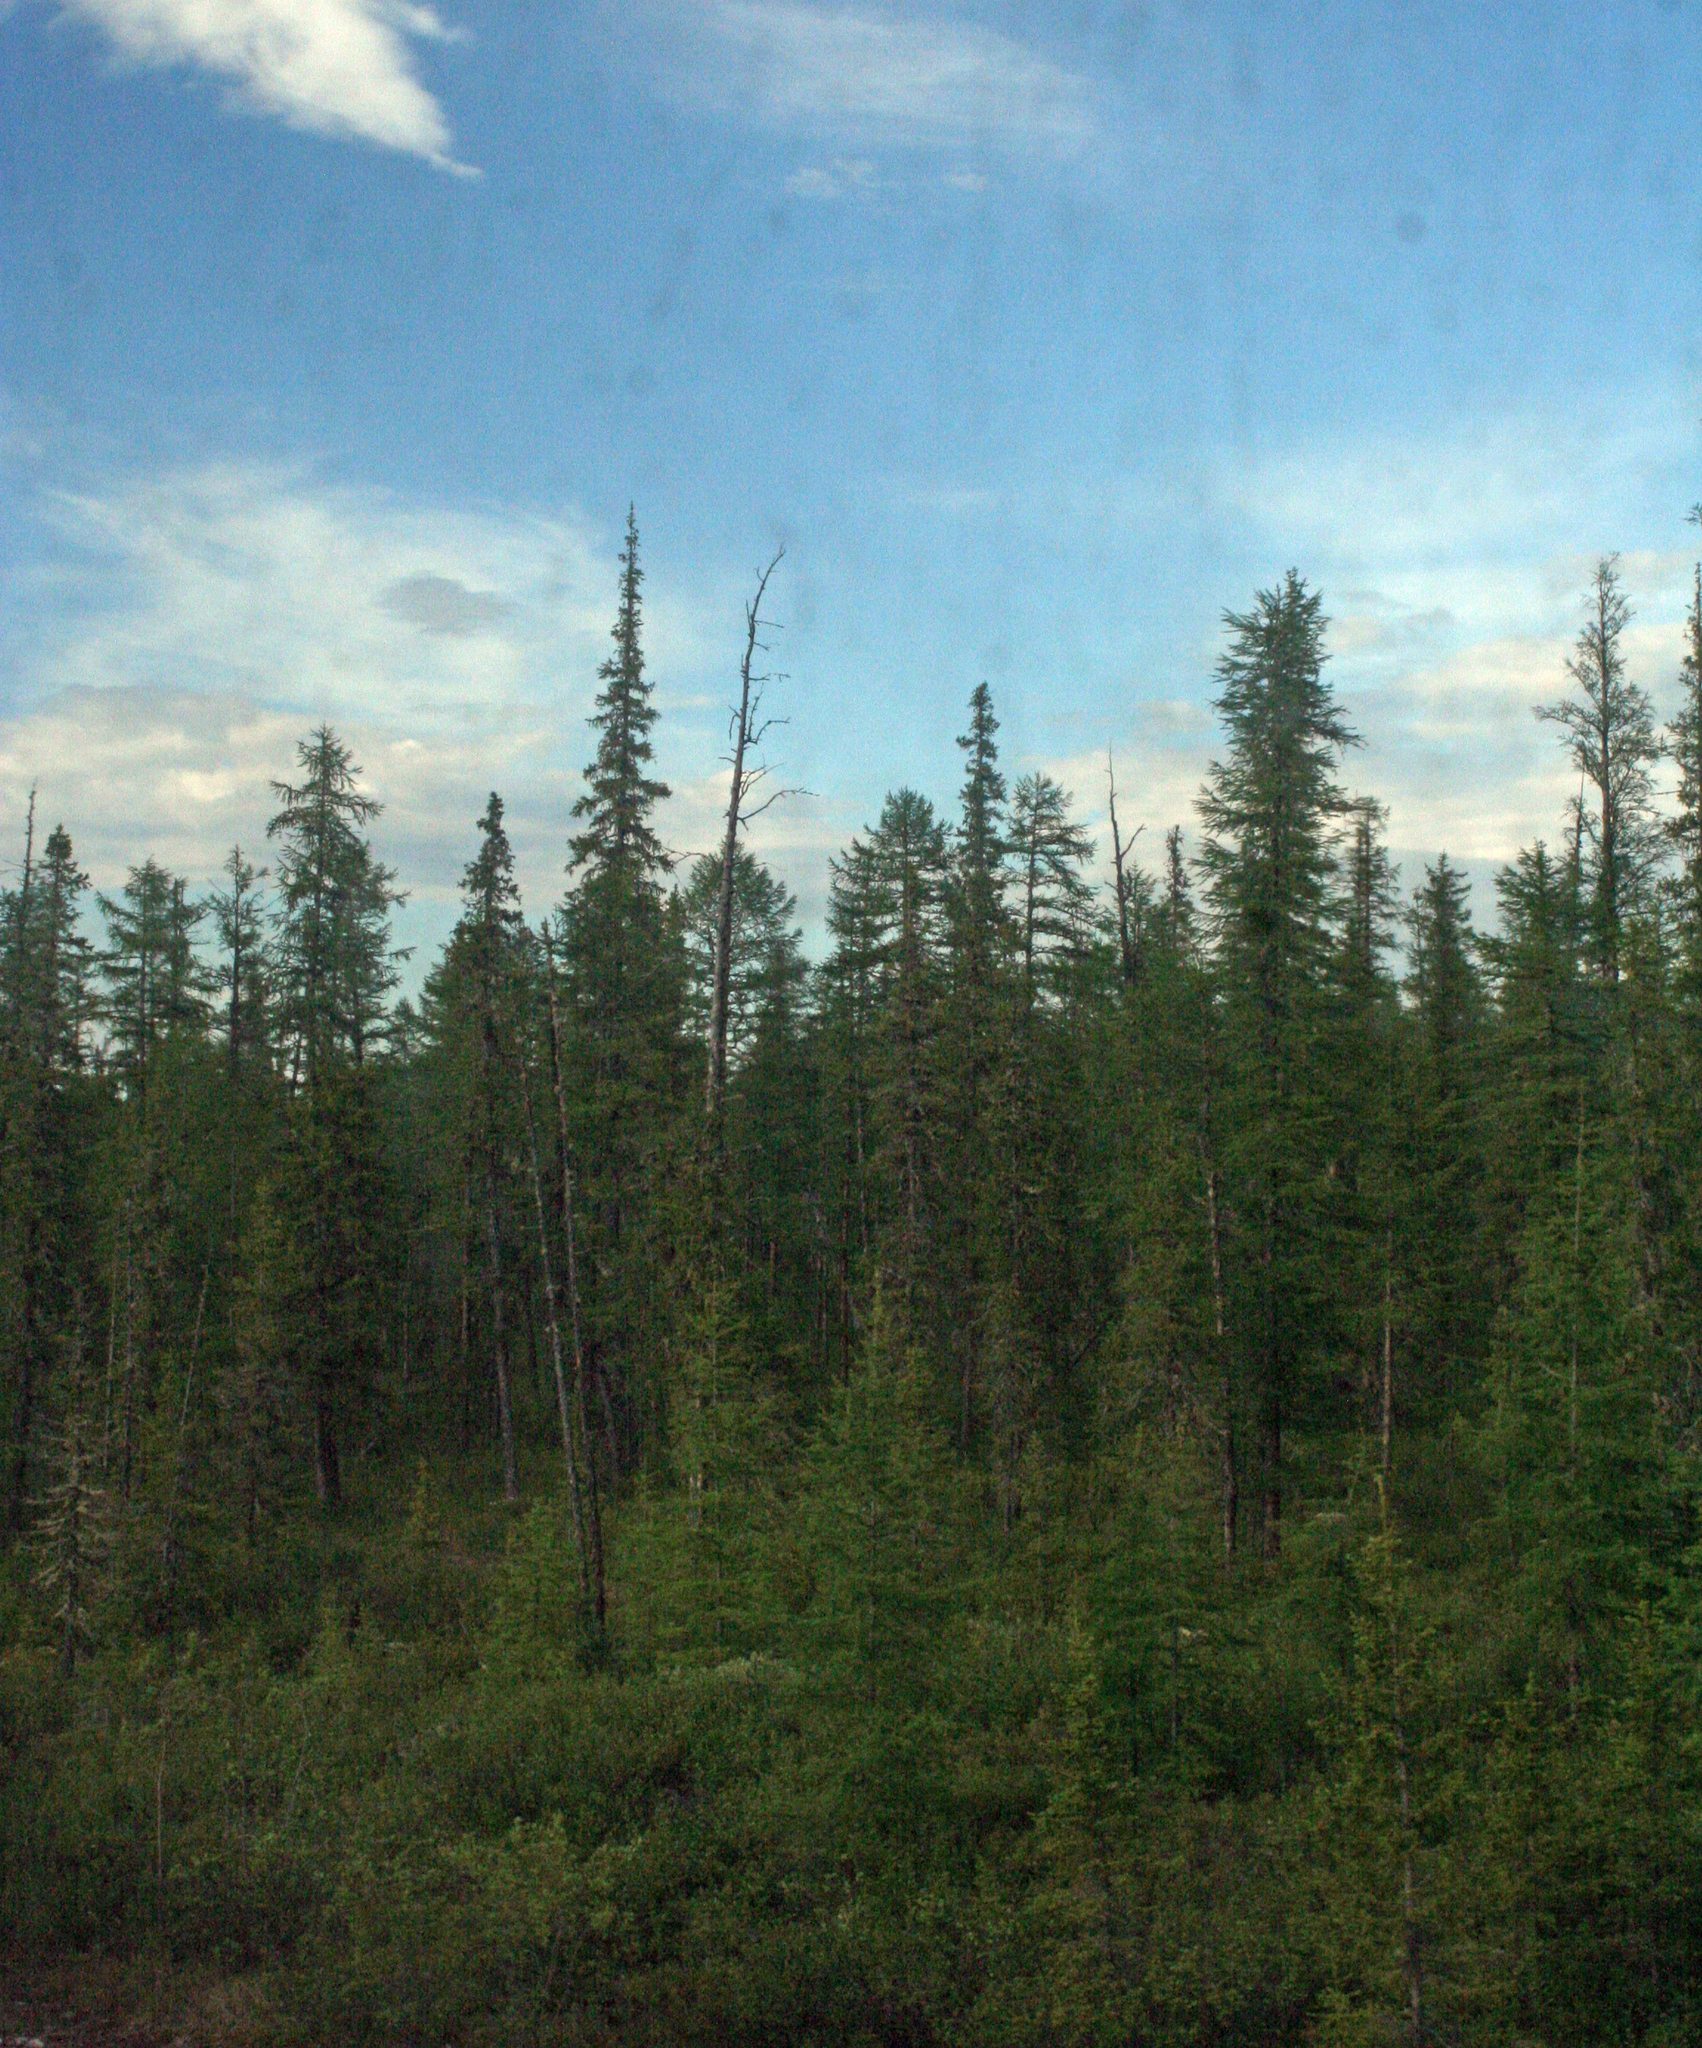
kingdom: Plantae
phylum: Tracheophyta
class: Pinopsida
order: Pinales
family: Pinaceae
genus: Picea
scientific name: Picea obovata
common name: Siberian spruce
